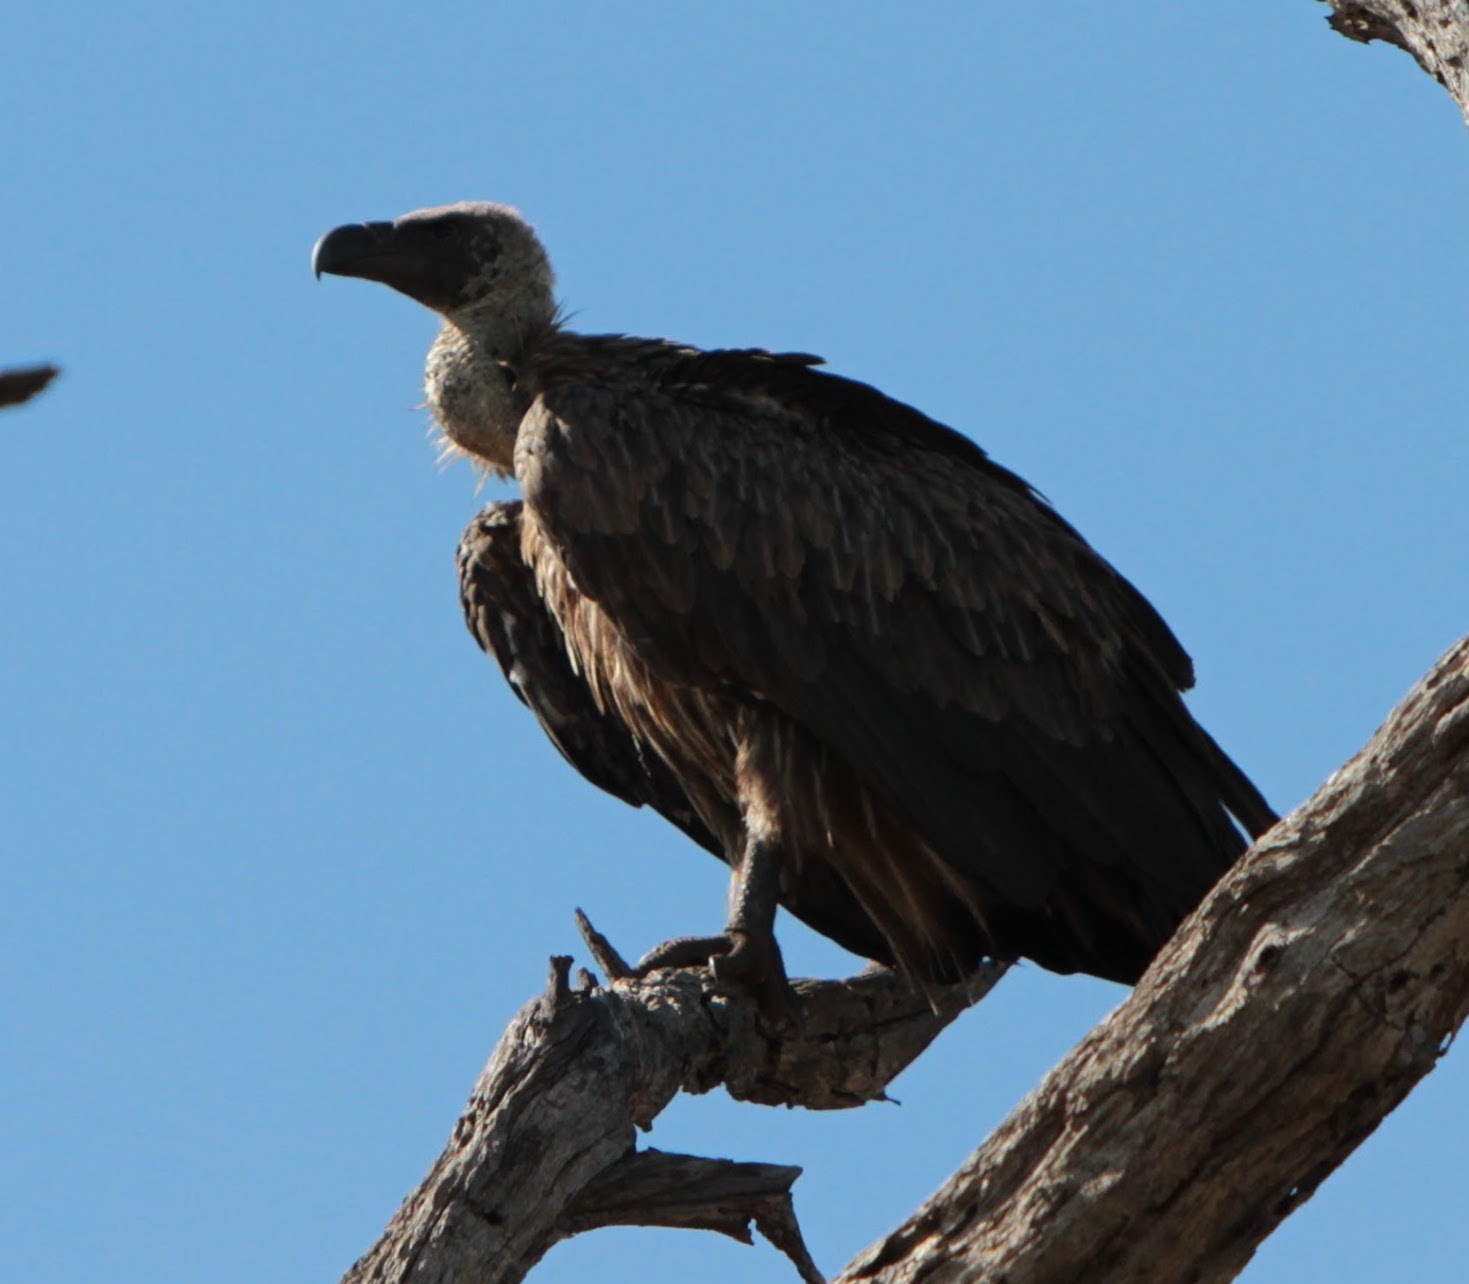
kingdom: Animalia
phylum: Chordata
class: Aves
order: Accipitriformes
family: Accipitridae
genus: Gyps
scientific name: Gyps africanus
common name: White-backed vulture
